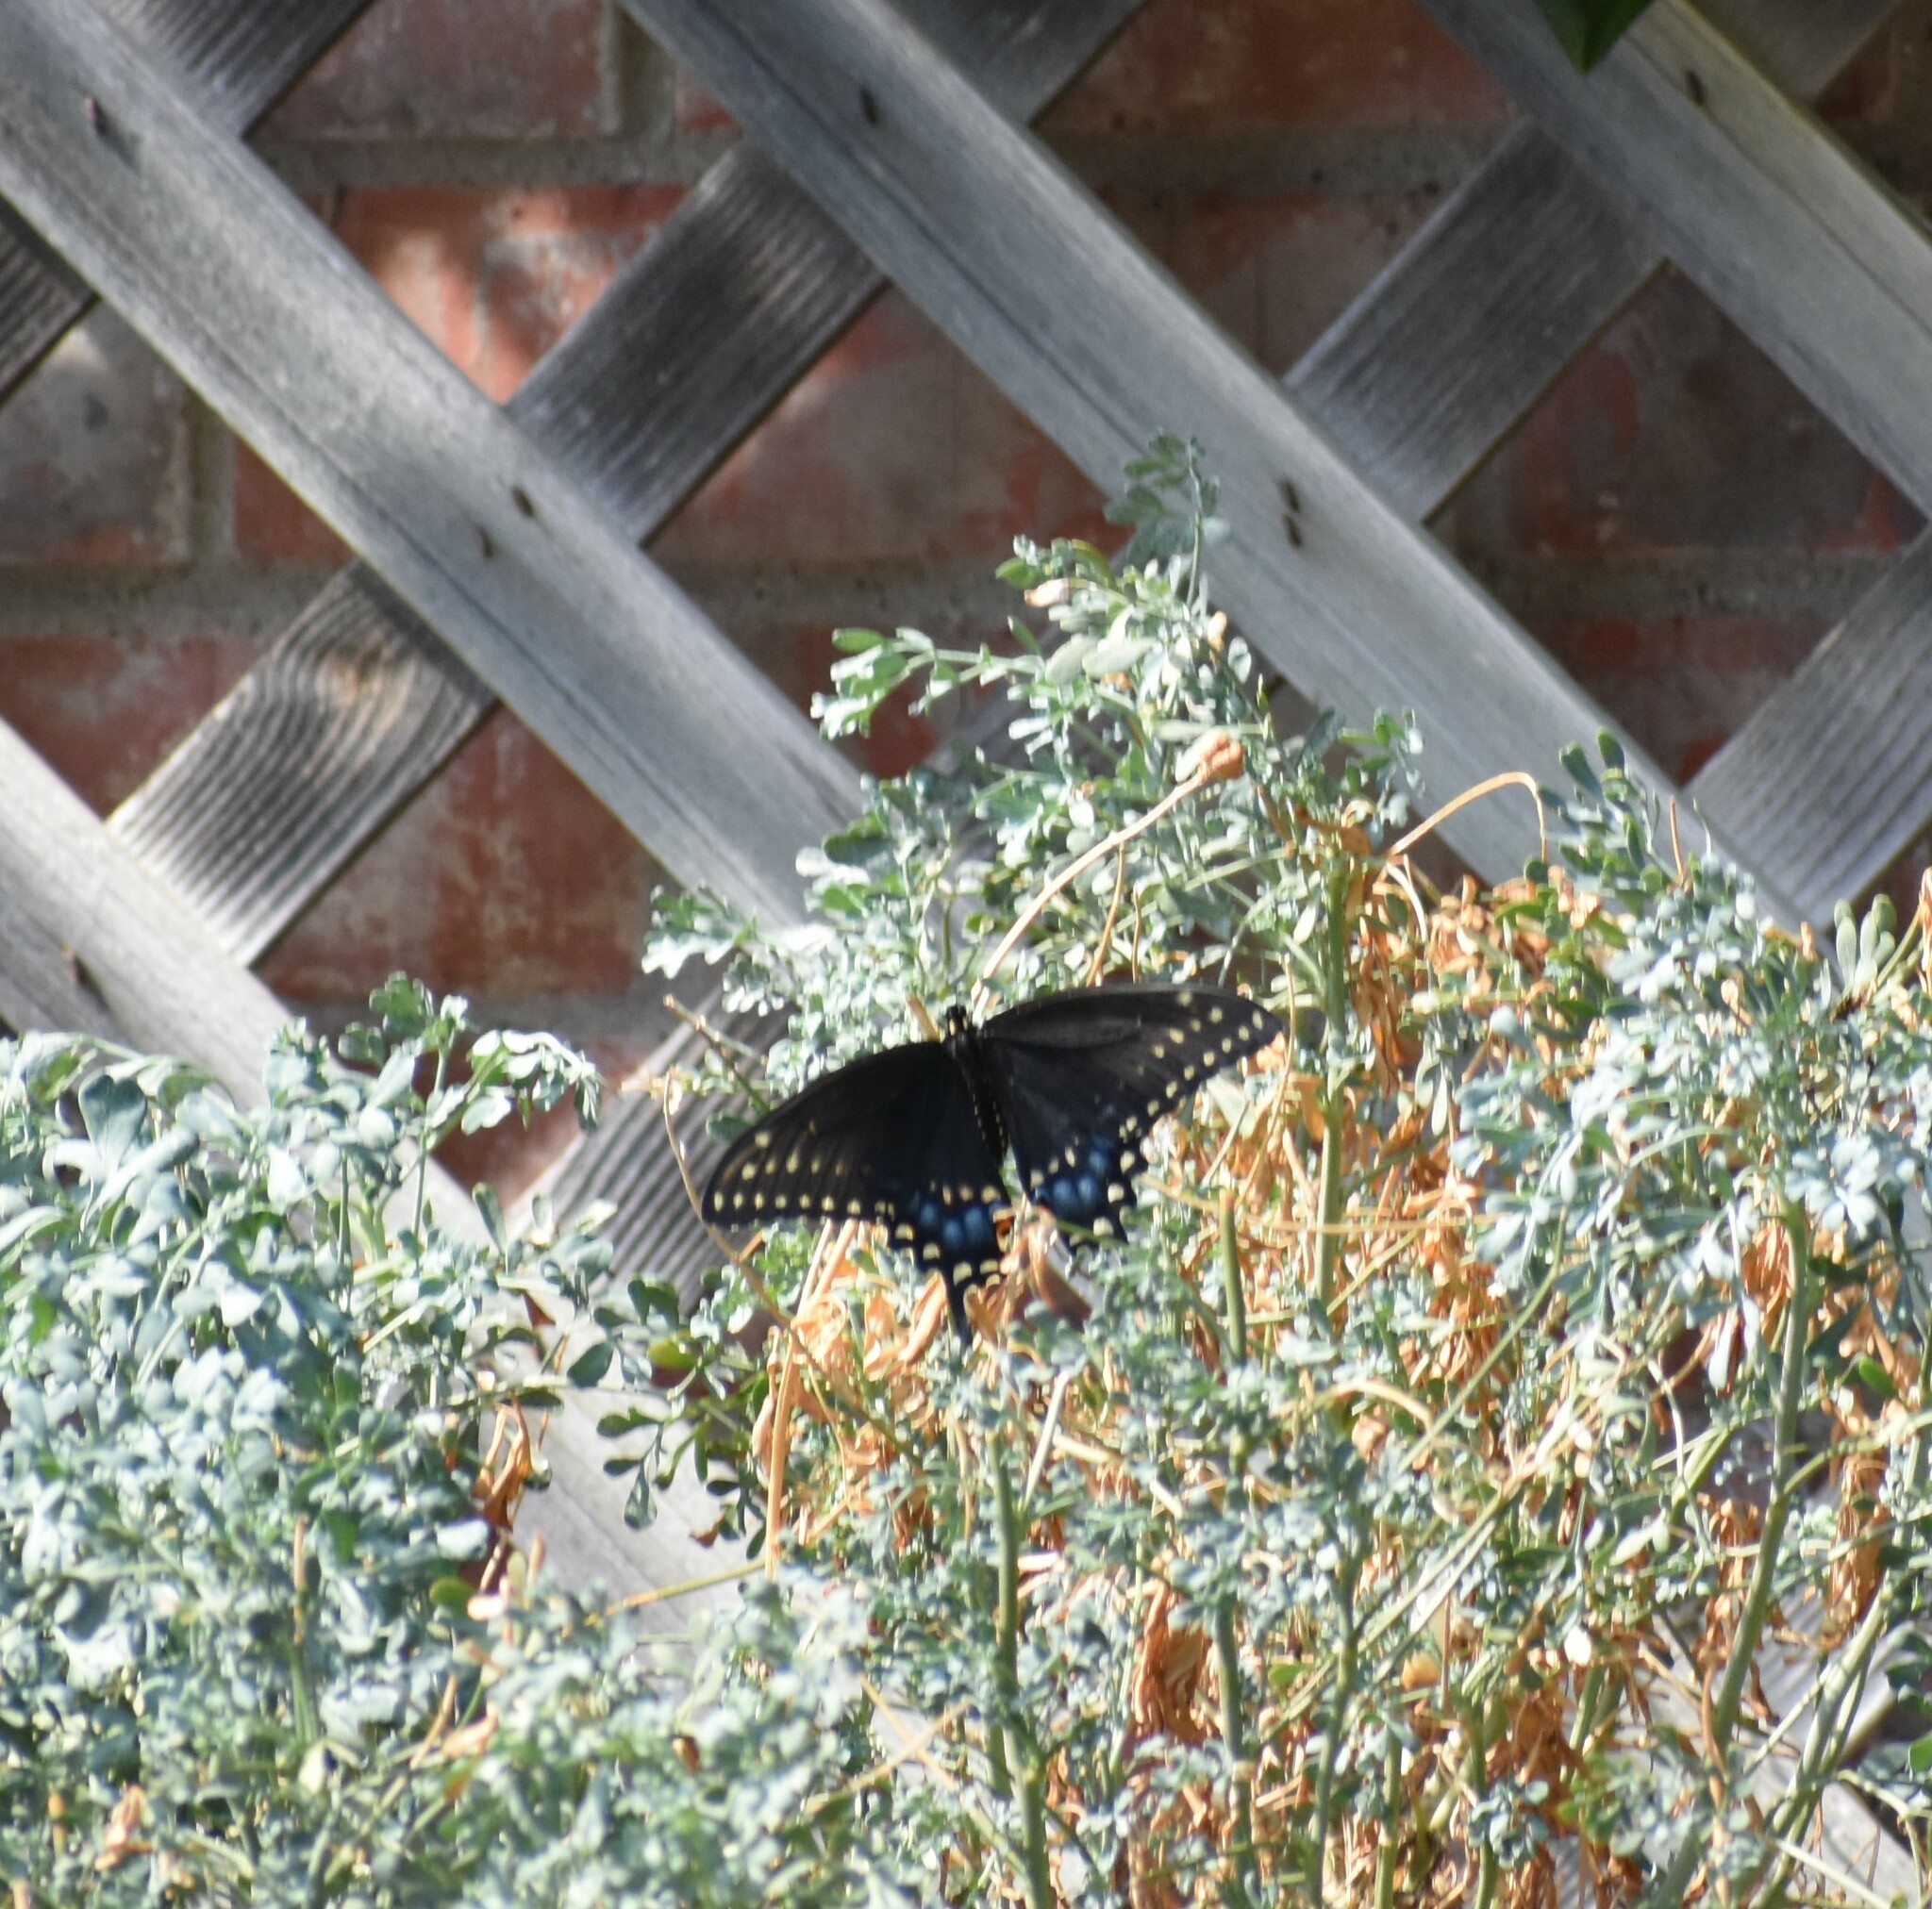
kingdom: Animalia
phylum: Arthropoda
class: Insecta
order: Lepidoptera
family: Papilionidae
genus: Papilio
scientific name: Papilio polyxenes
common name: Black swallowtail
